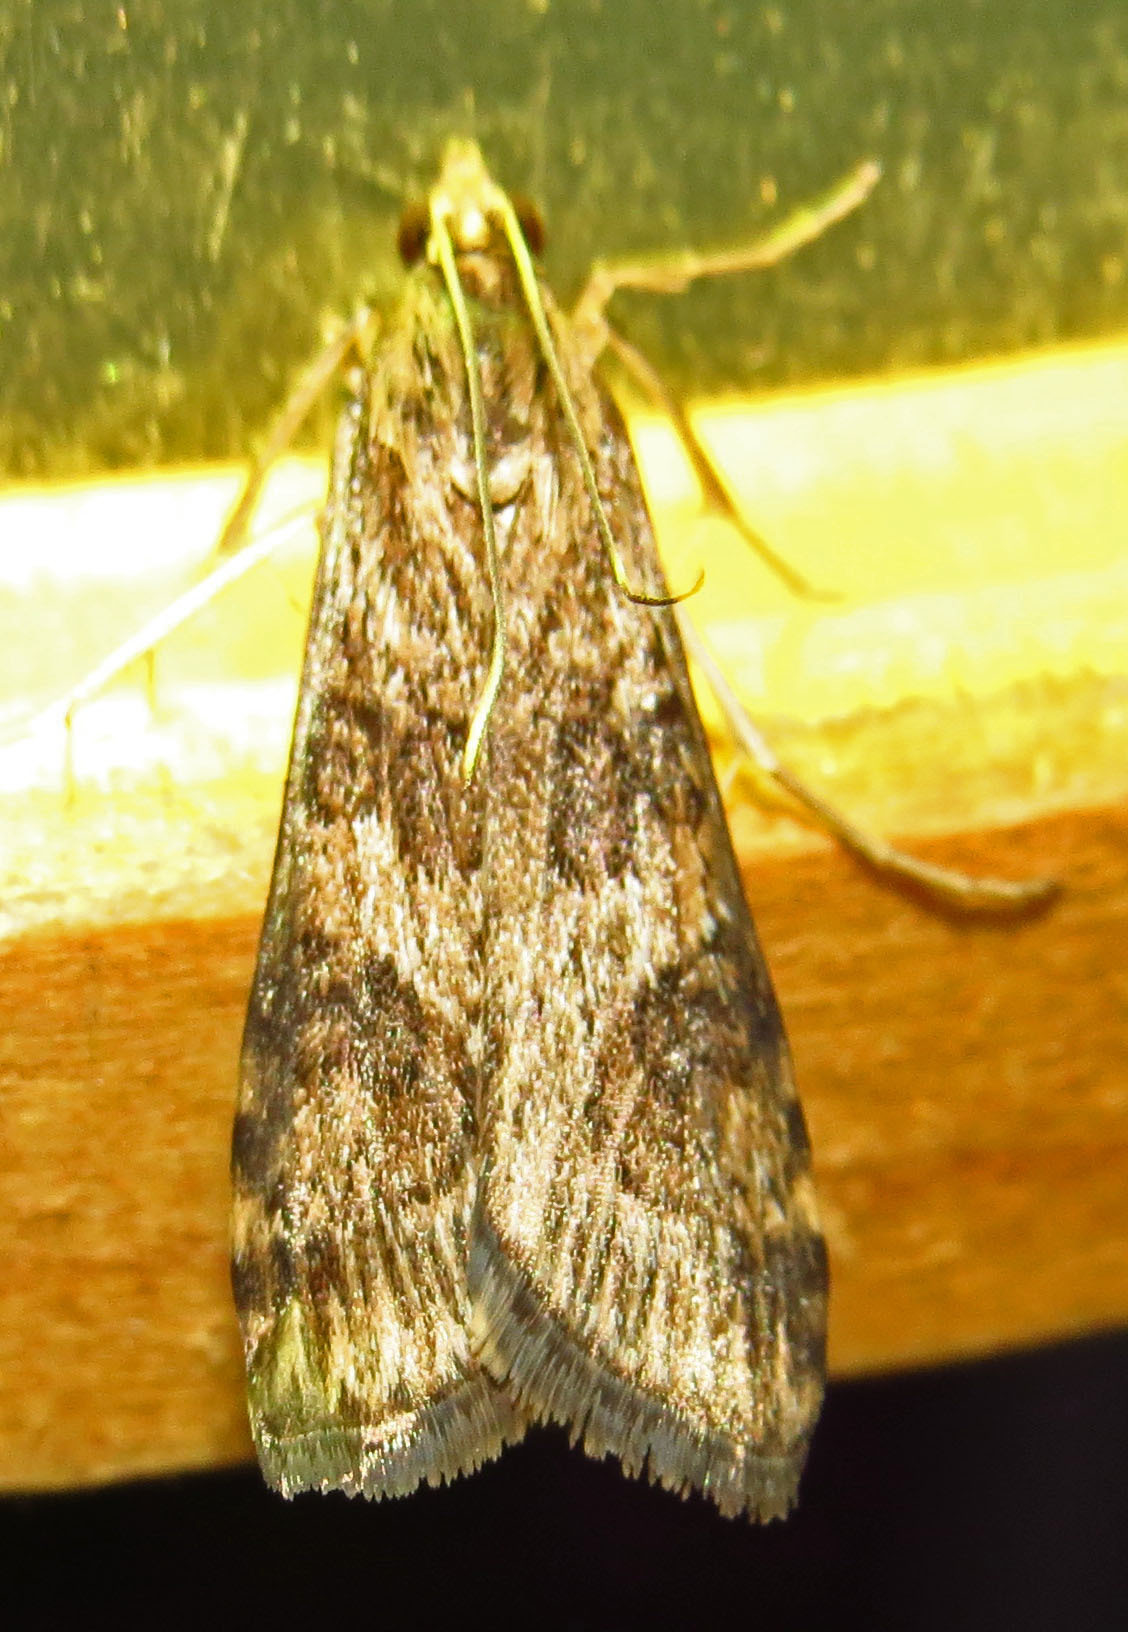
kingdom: Animalia
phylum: Arthropoda
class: Insecta
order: Lepidoptera
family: Crambidae
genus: Nomophila
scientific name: Nomophila nearctica
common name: American rush veneer
